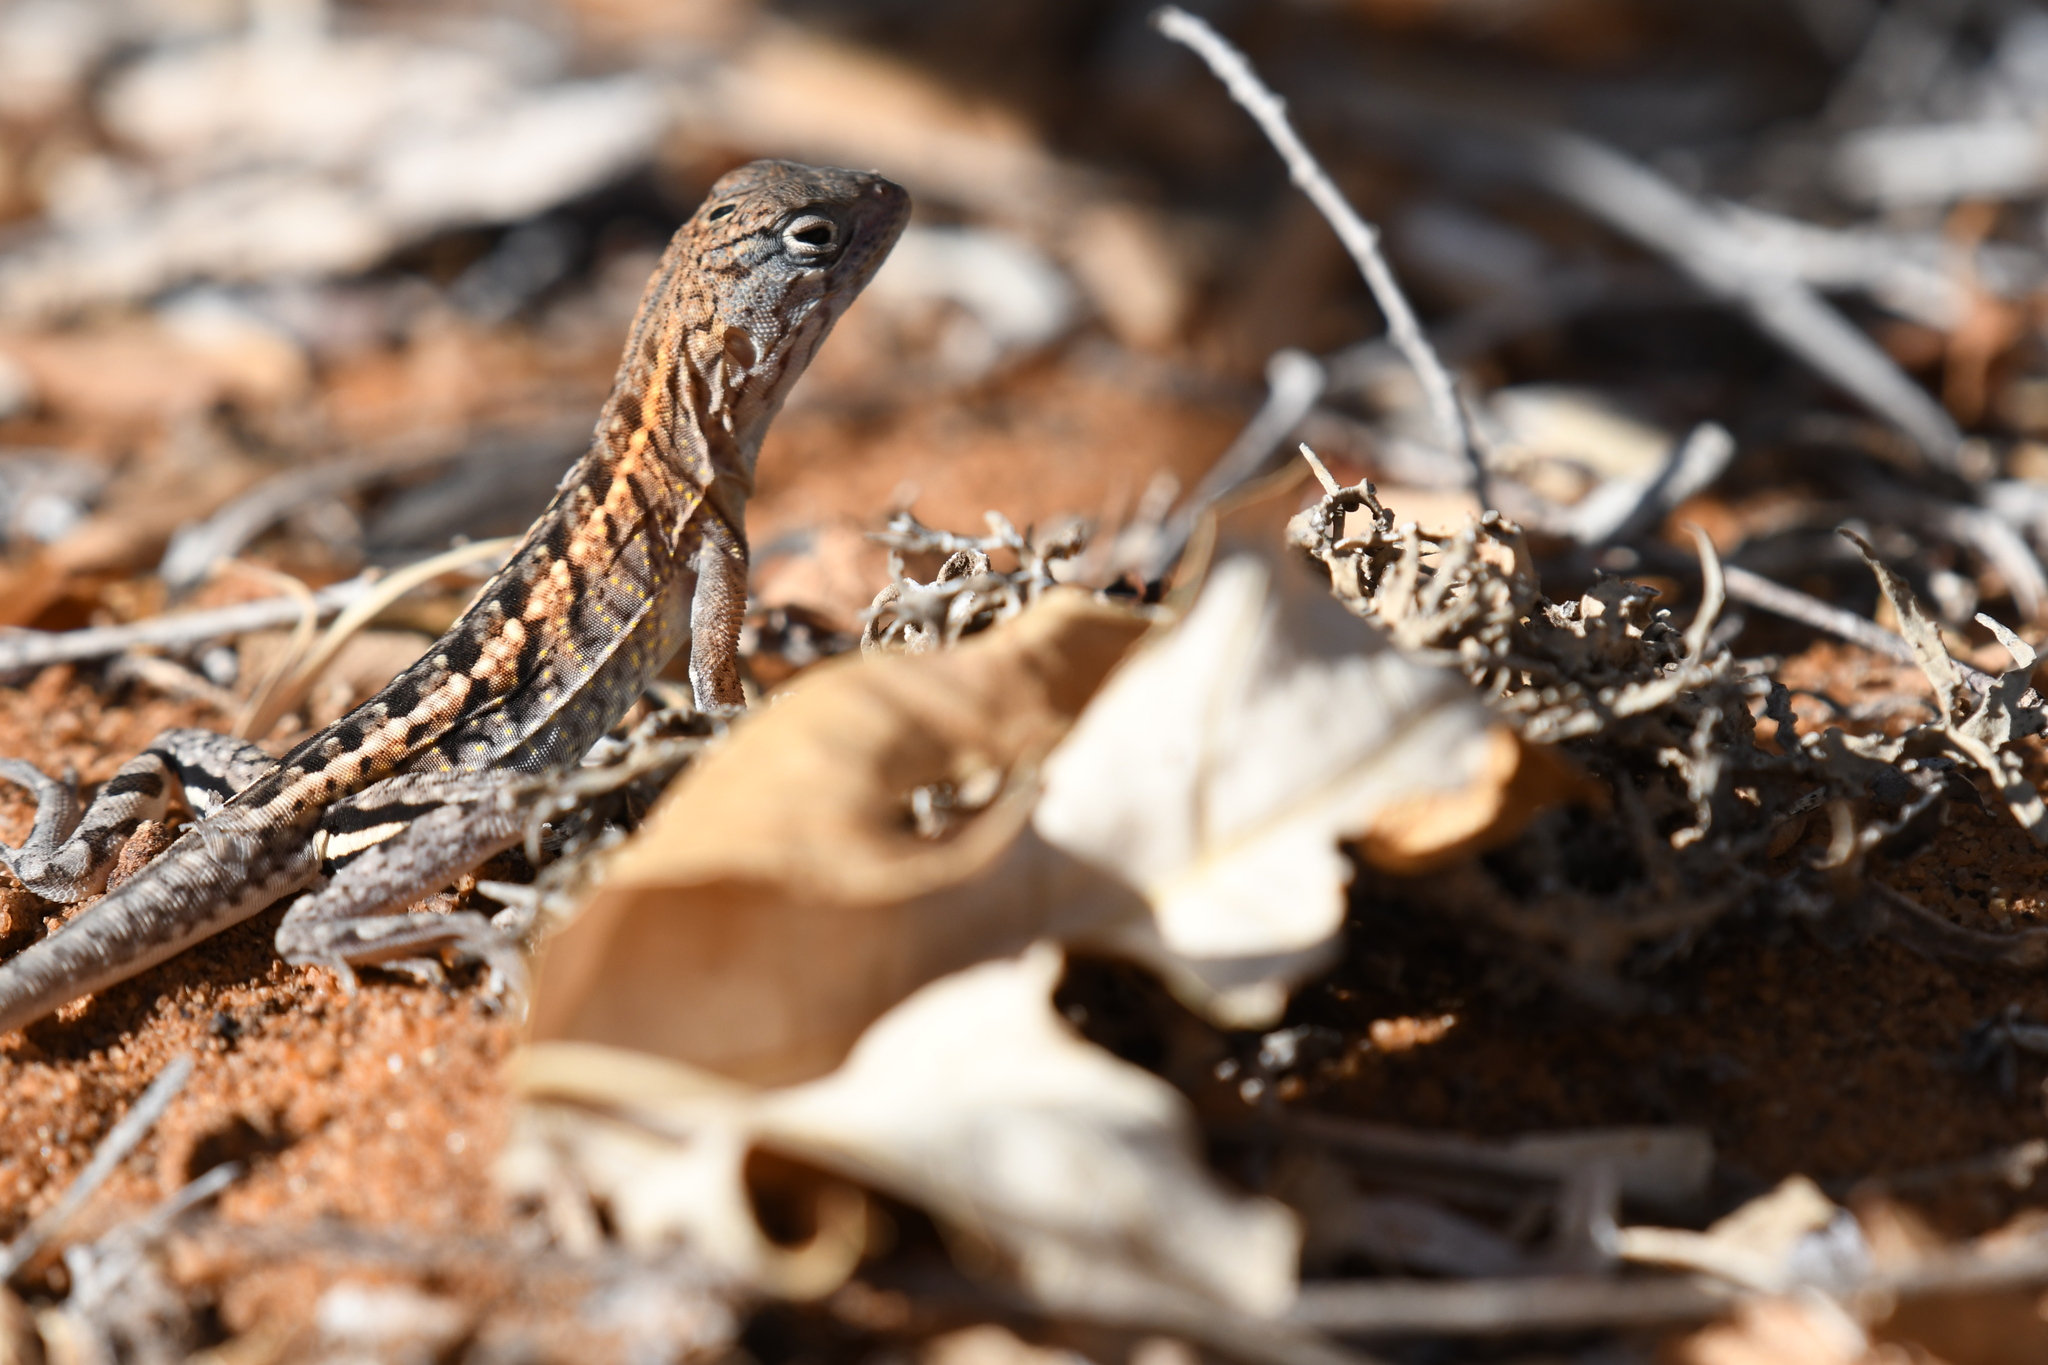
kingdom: Animalia
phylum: Chordata
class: Squamata
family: Opluridae
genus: Chalarodon
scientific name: Chalarodon madagascariensis
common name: Madagascar iguana
